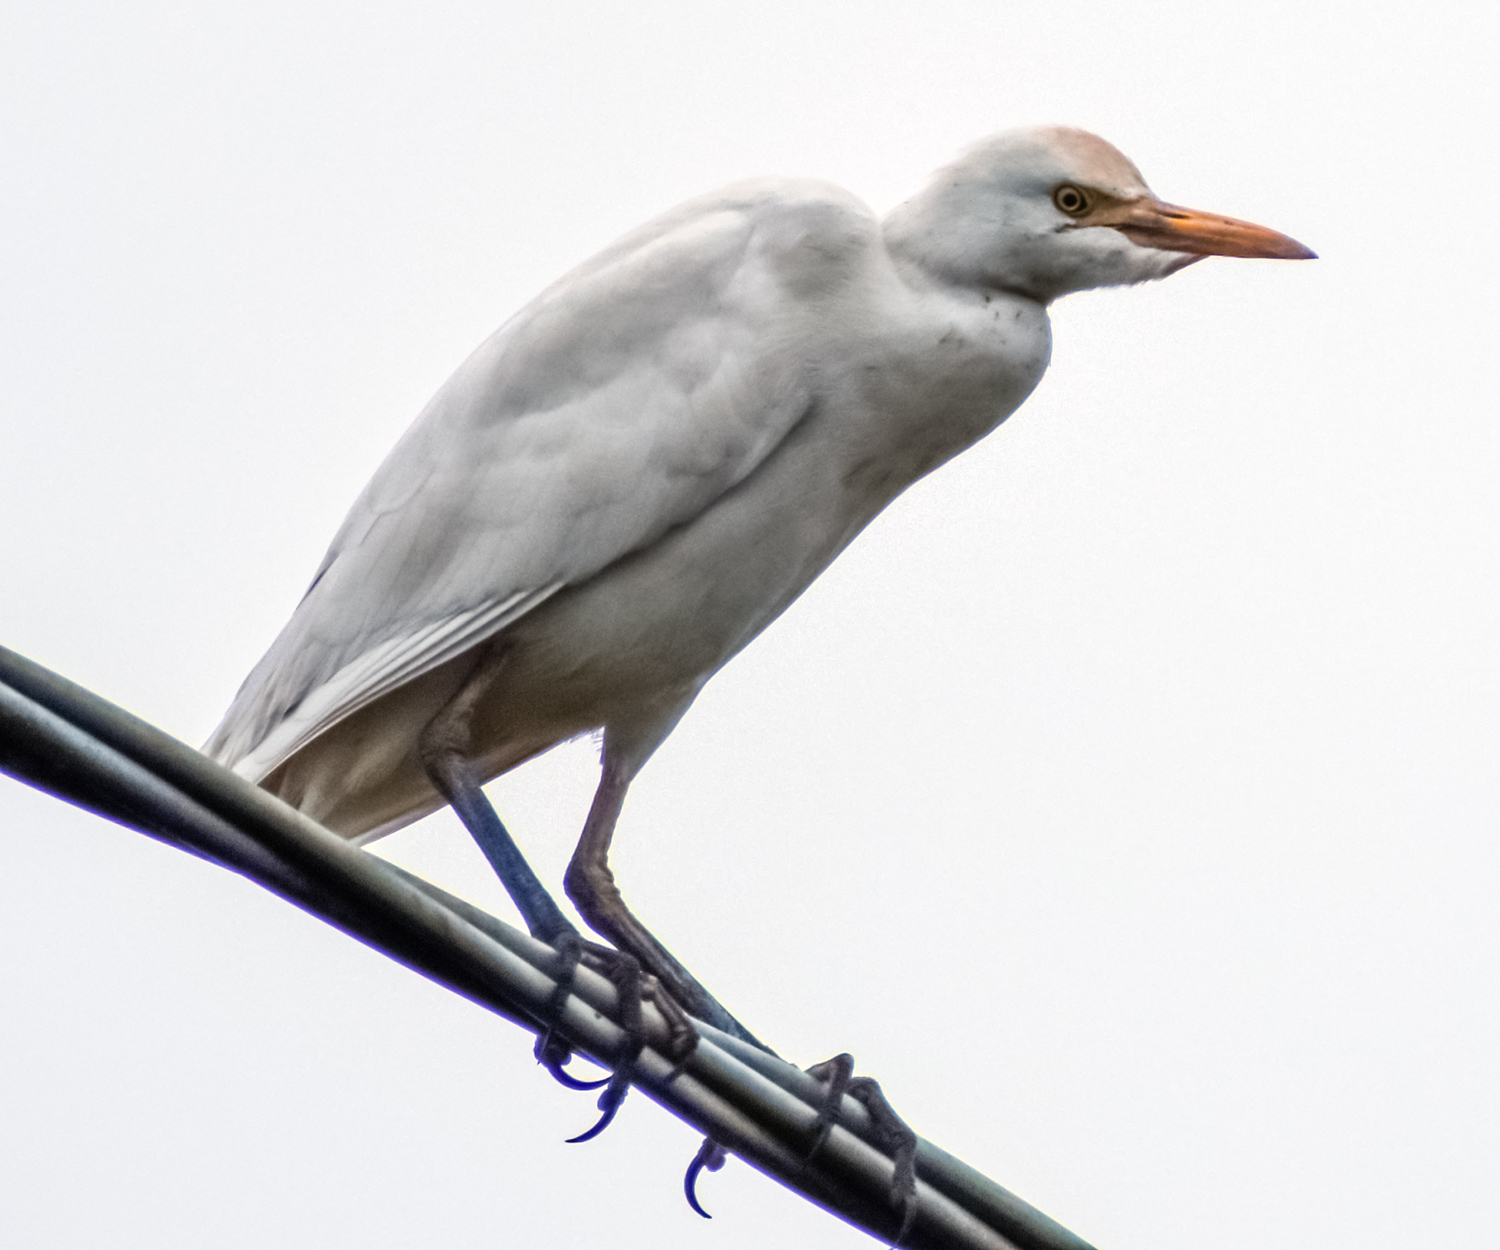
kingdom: Animalia
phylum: Chordata
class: Aves
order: Pelecaniformes
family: Ardeidae
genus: Bubulcus
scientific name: Bubulcus ibis
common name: Cattle egret
